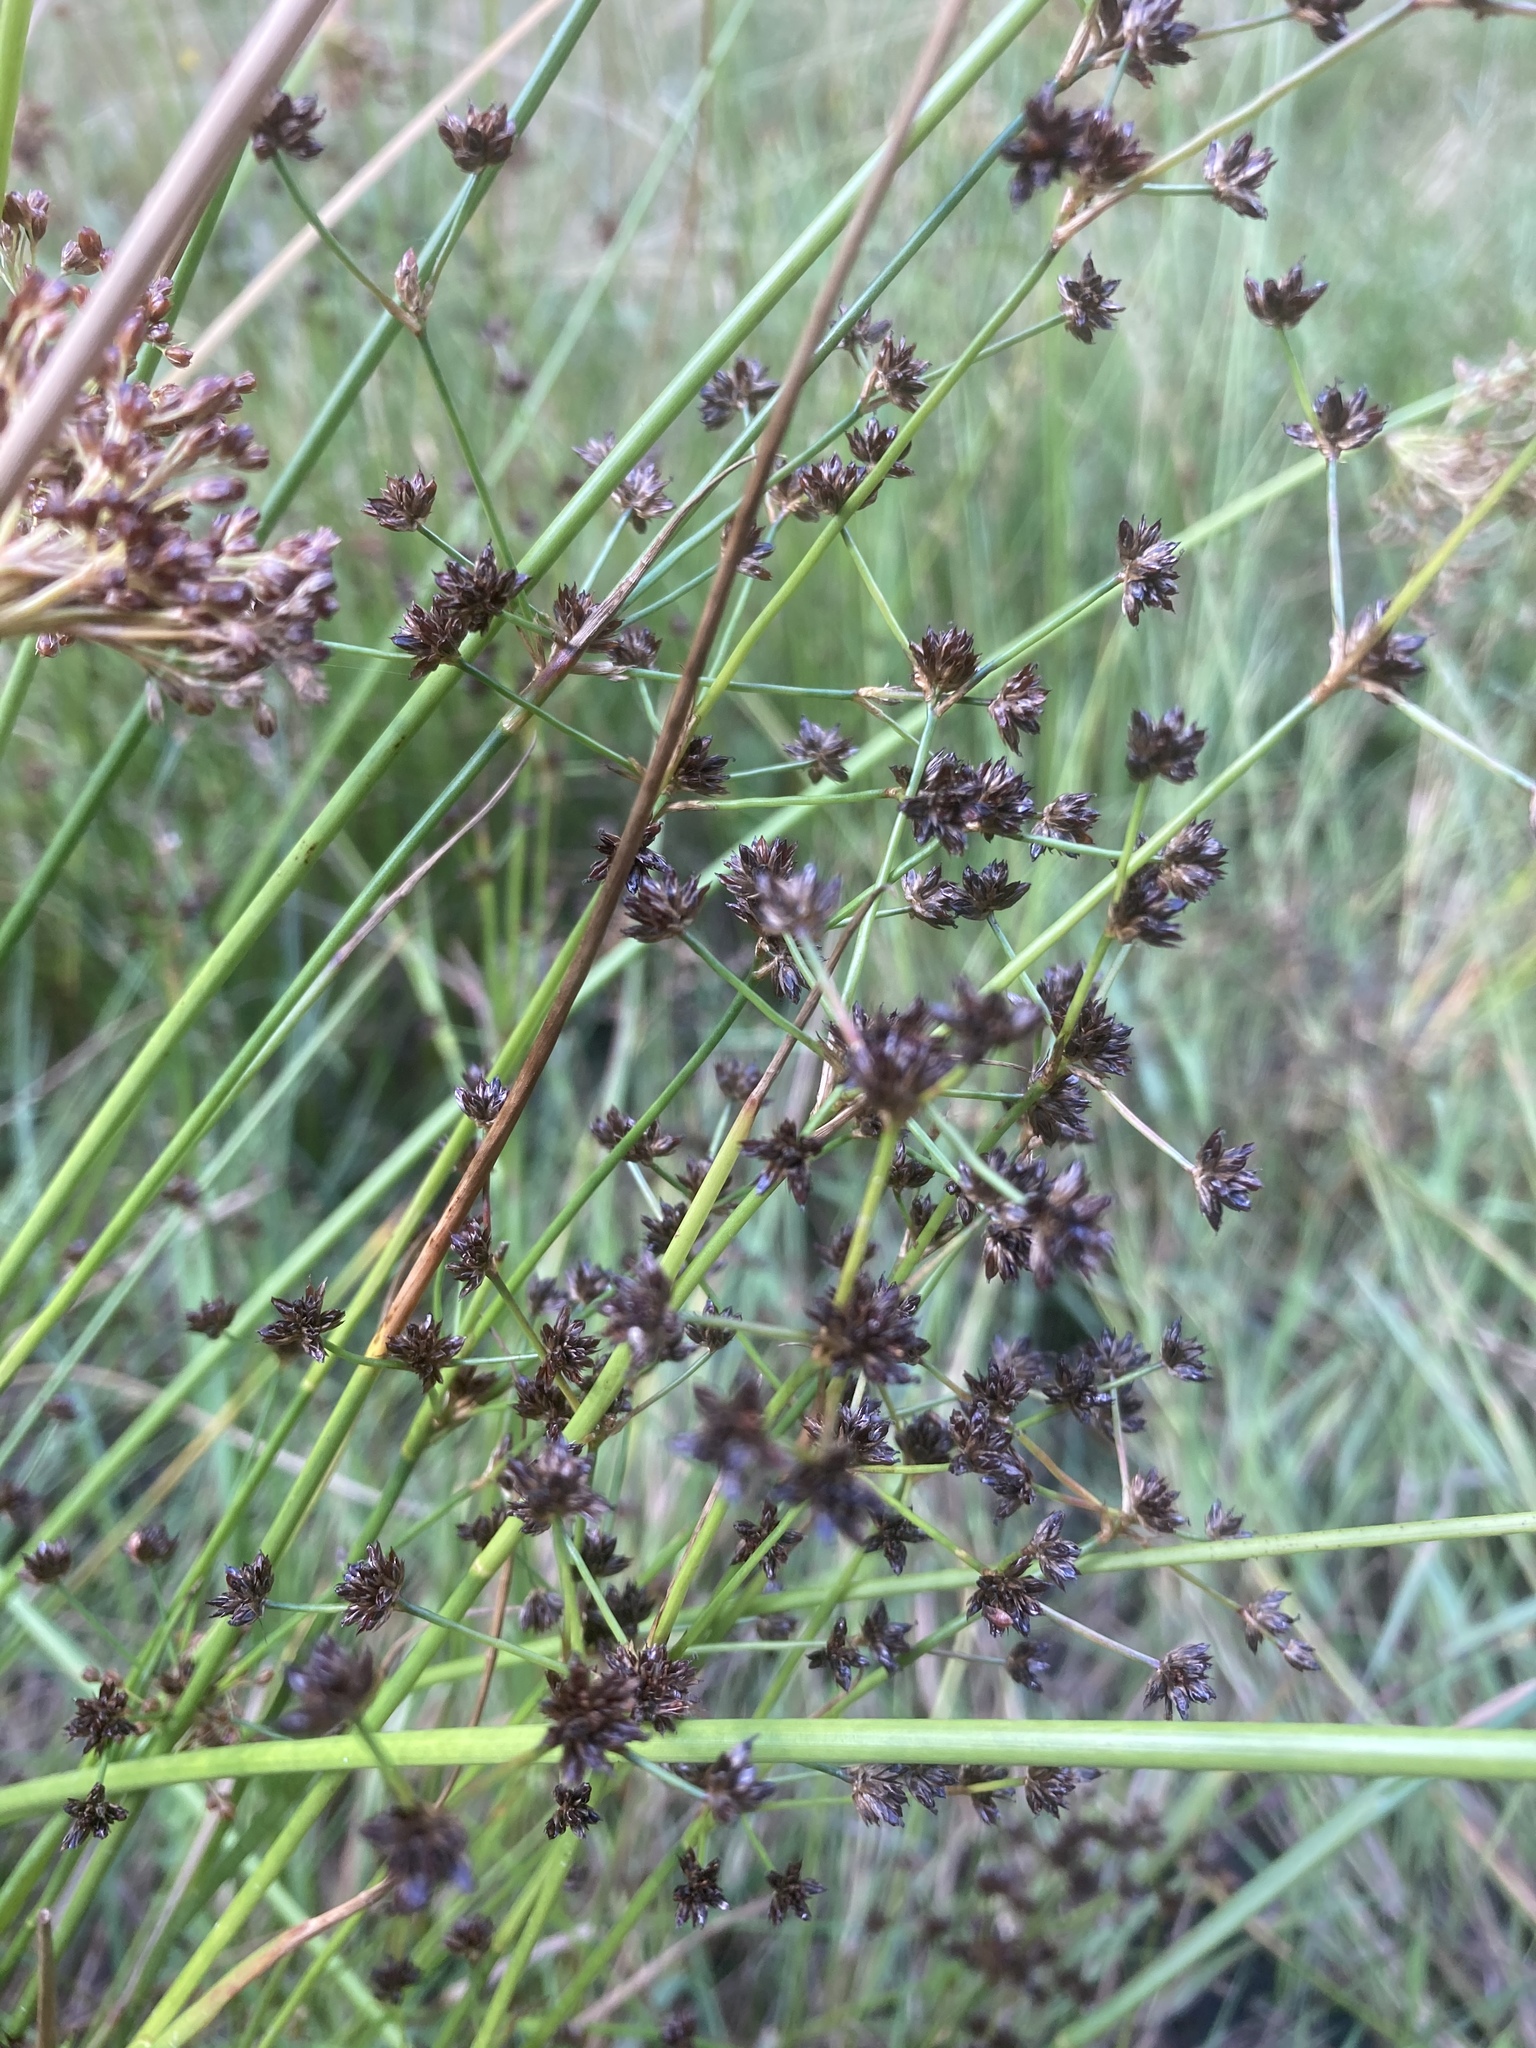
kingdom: Plantae
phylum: Tracheophyta
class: Liliopsida
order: Poales
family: Juncaceae
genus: Juncus
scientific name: Juncus articulatus
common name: Jointed rush
